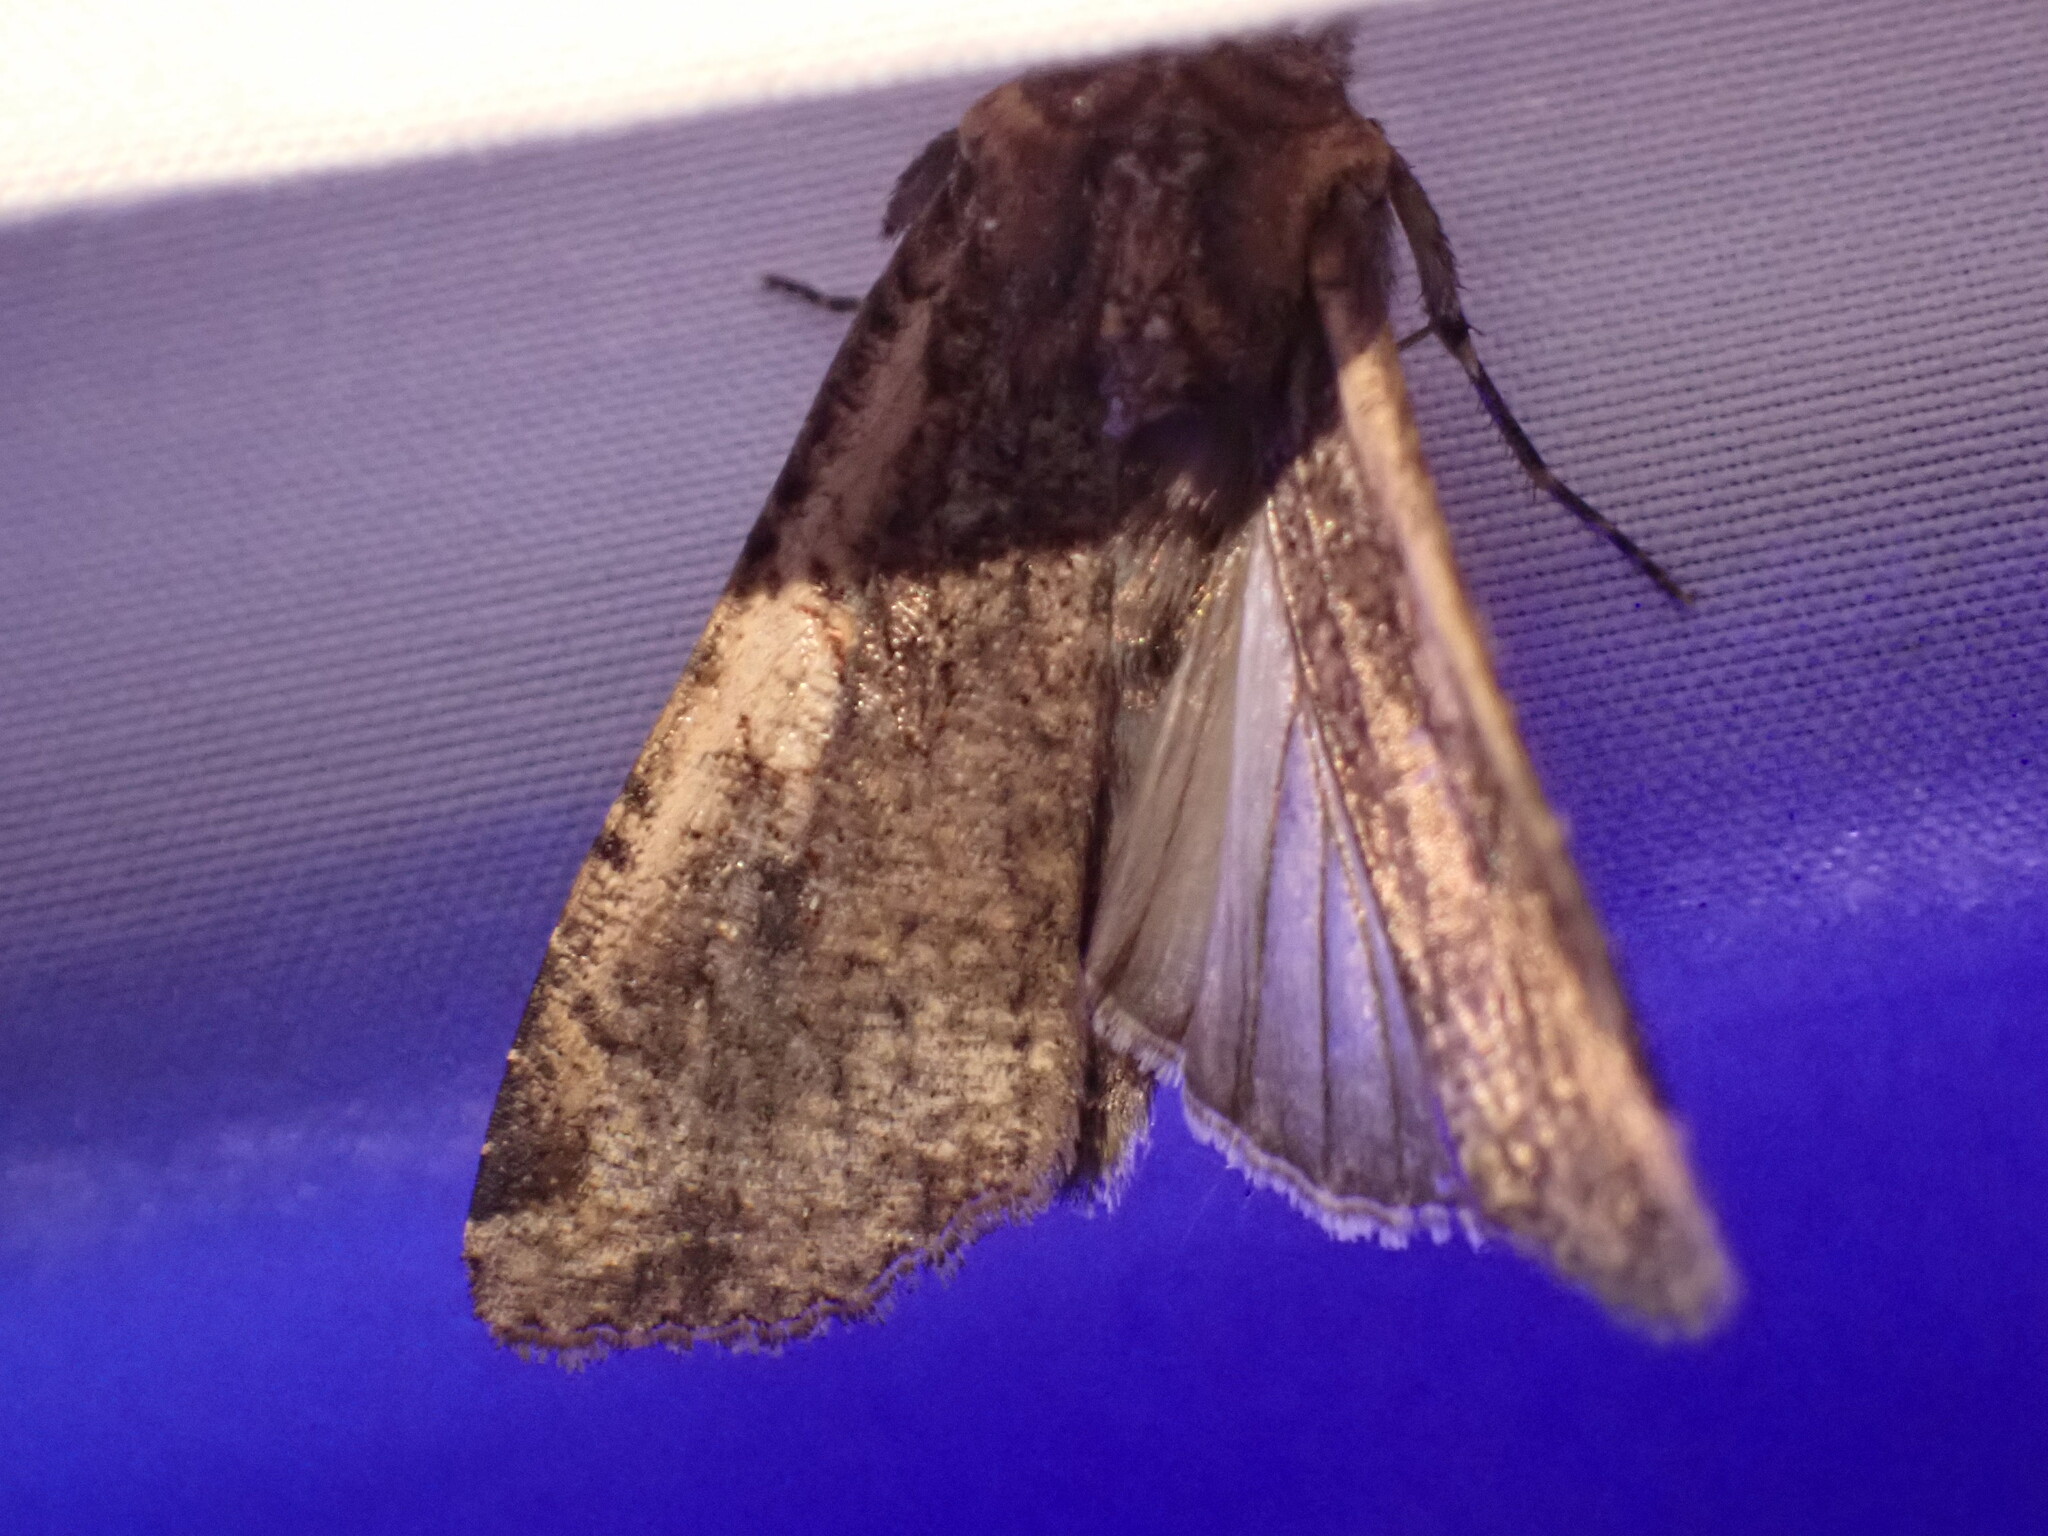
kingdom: Animalia
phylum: Arthropoda
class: Insecta
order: Lepidoptera
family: Noctuidae
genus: Peridroma
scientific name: Peridroma saucia
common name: Pearly underwing
